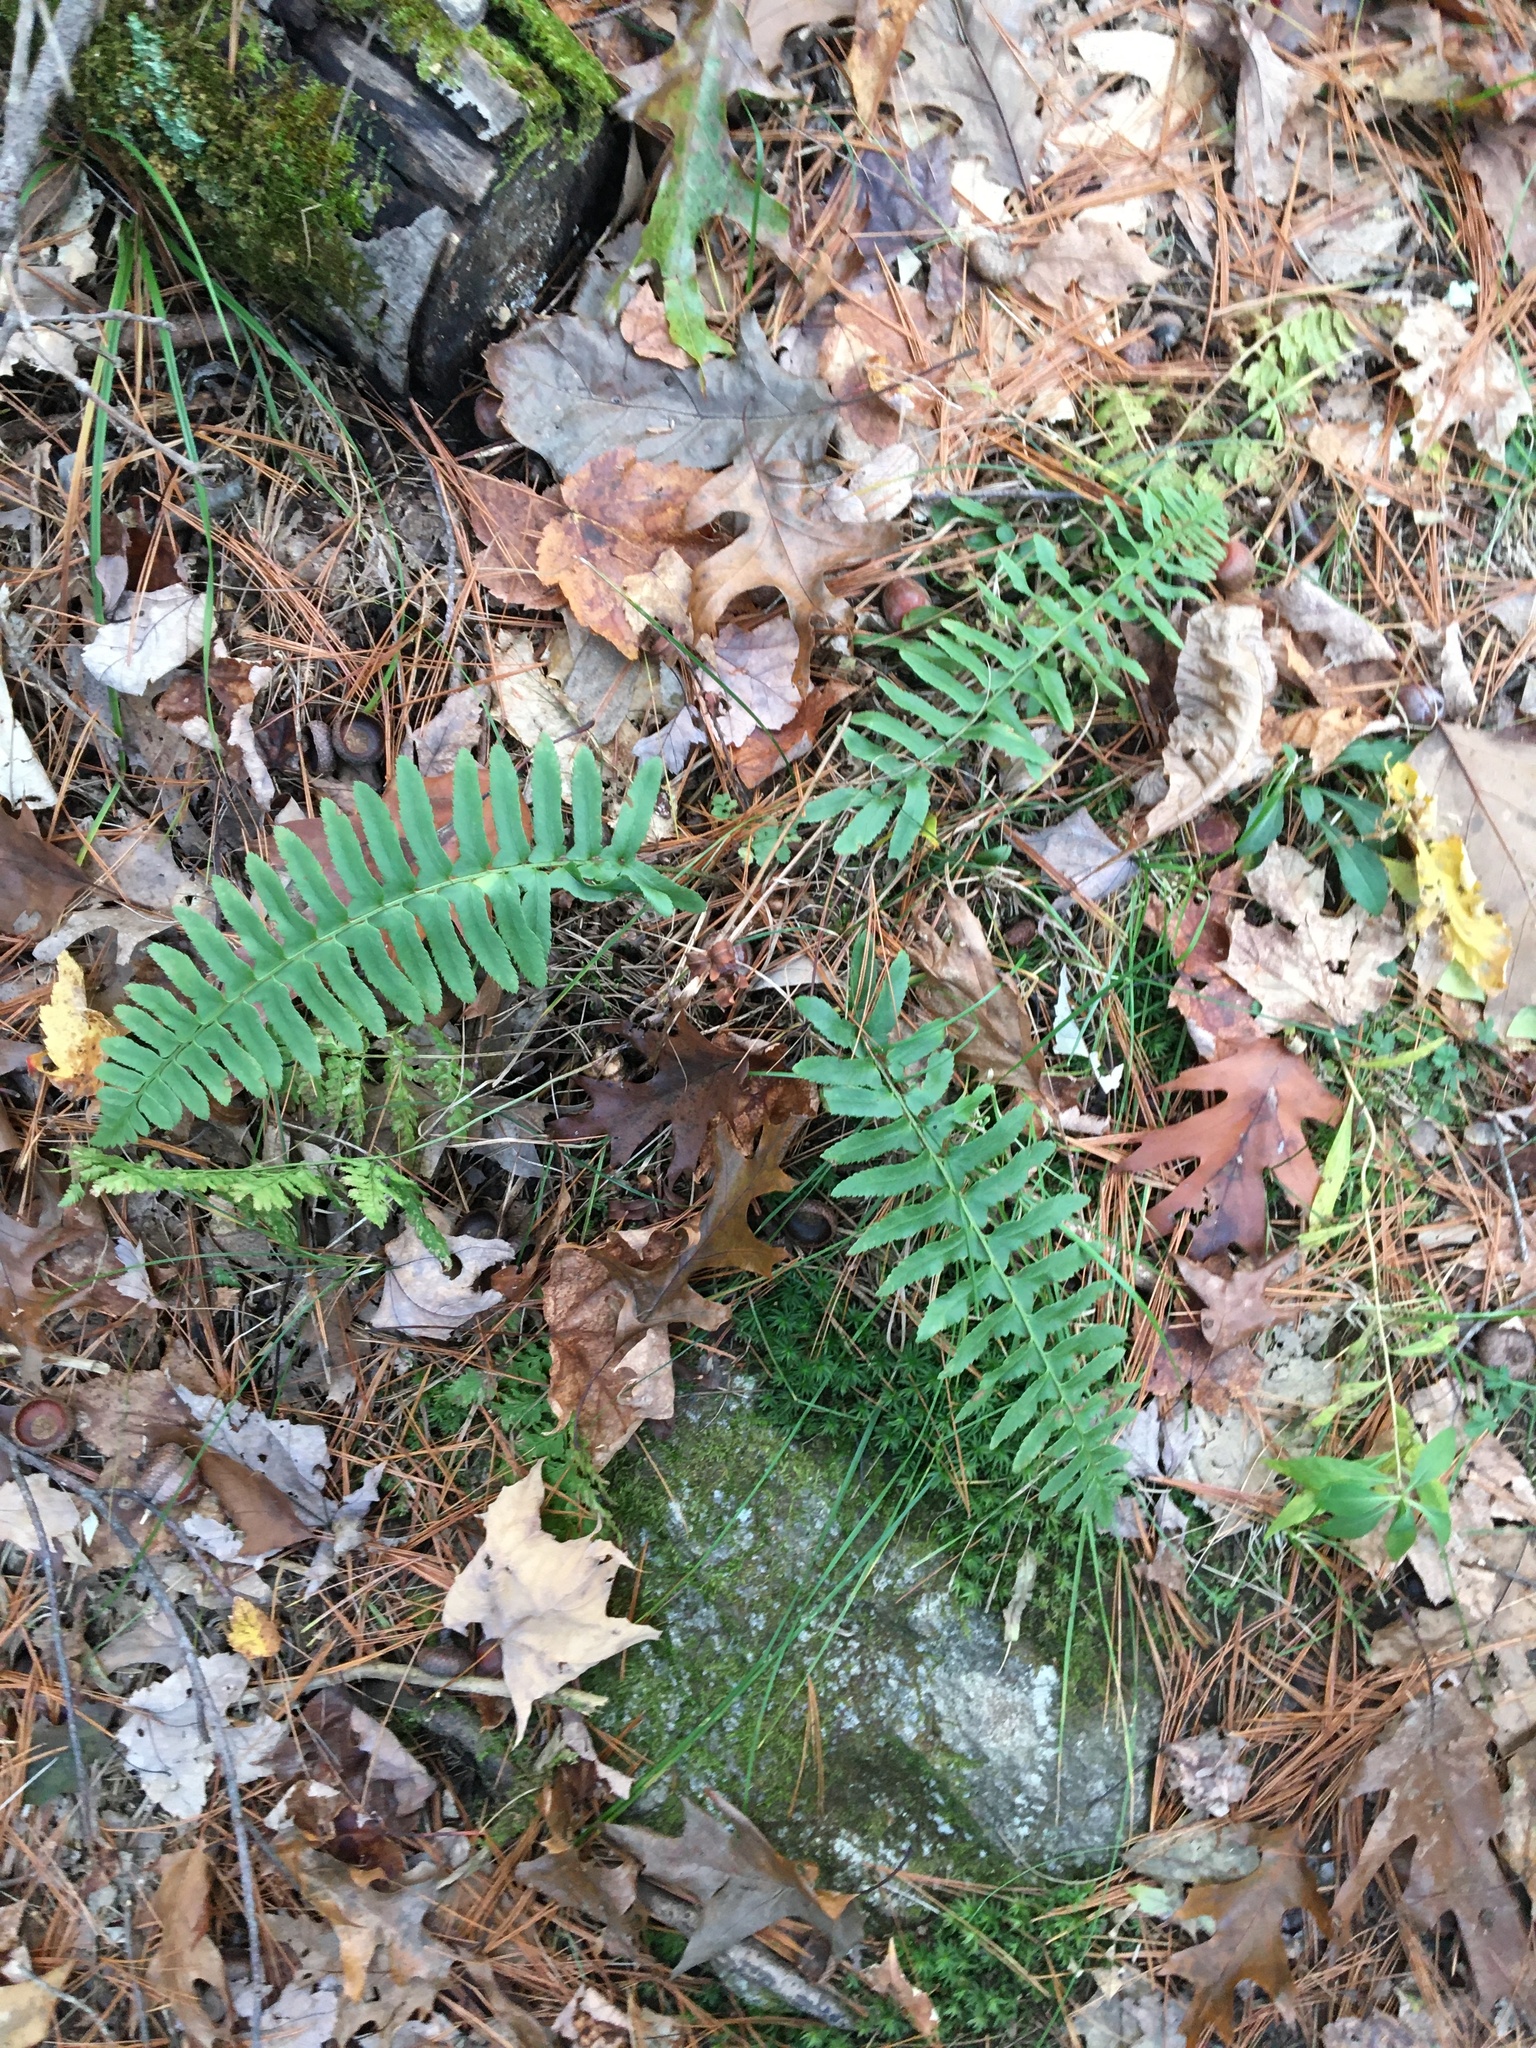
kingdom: Plantae
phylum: Tracheophyta
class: Polypodiopsida
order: Polypodiales
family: Dryopteridaceae
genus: Polystichum
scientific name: Polystichum acrostichoides
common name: Christmas fern
